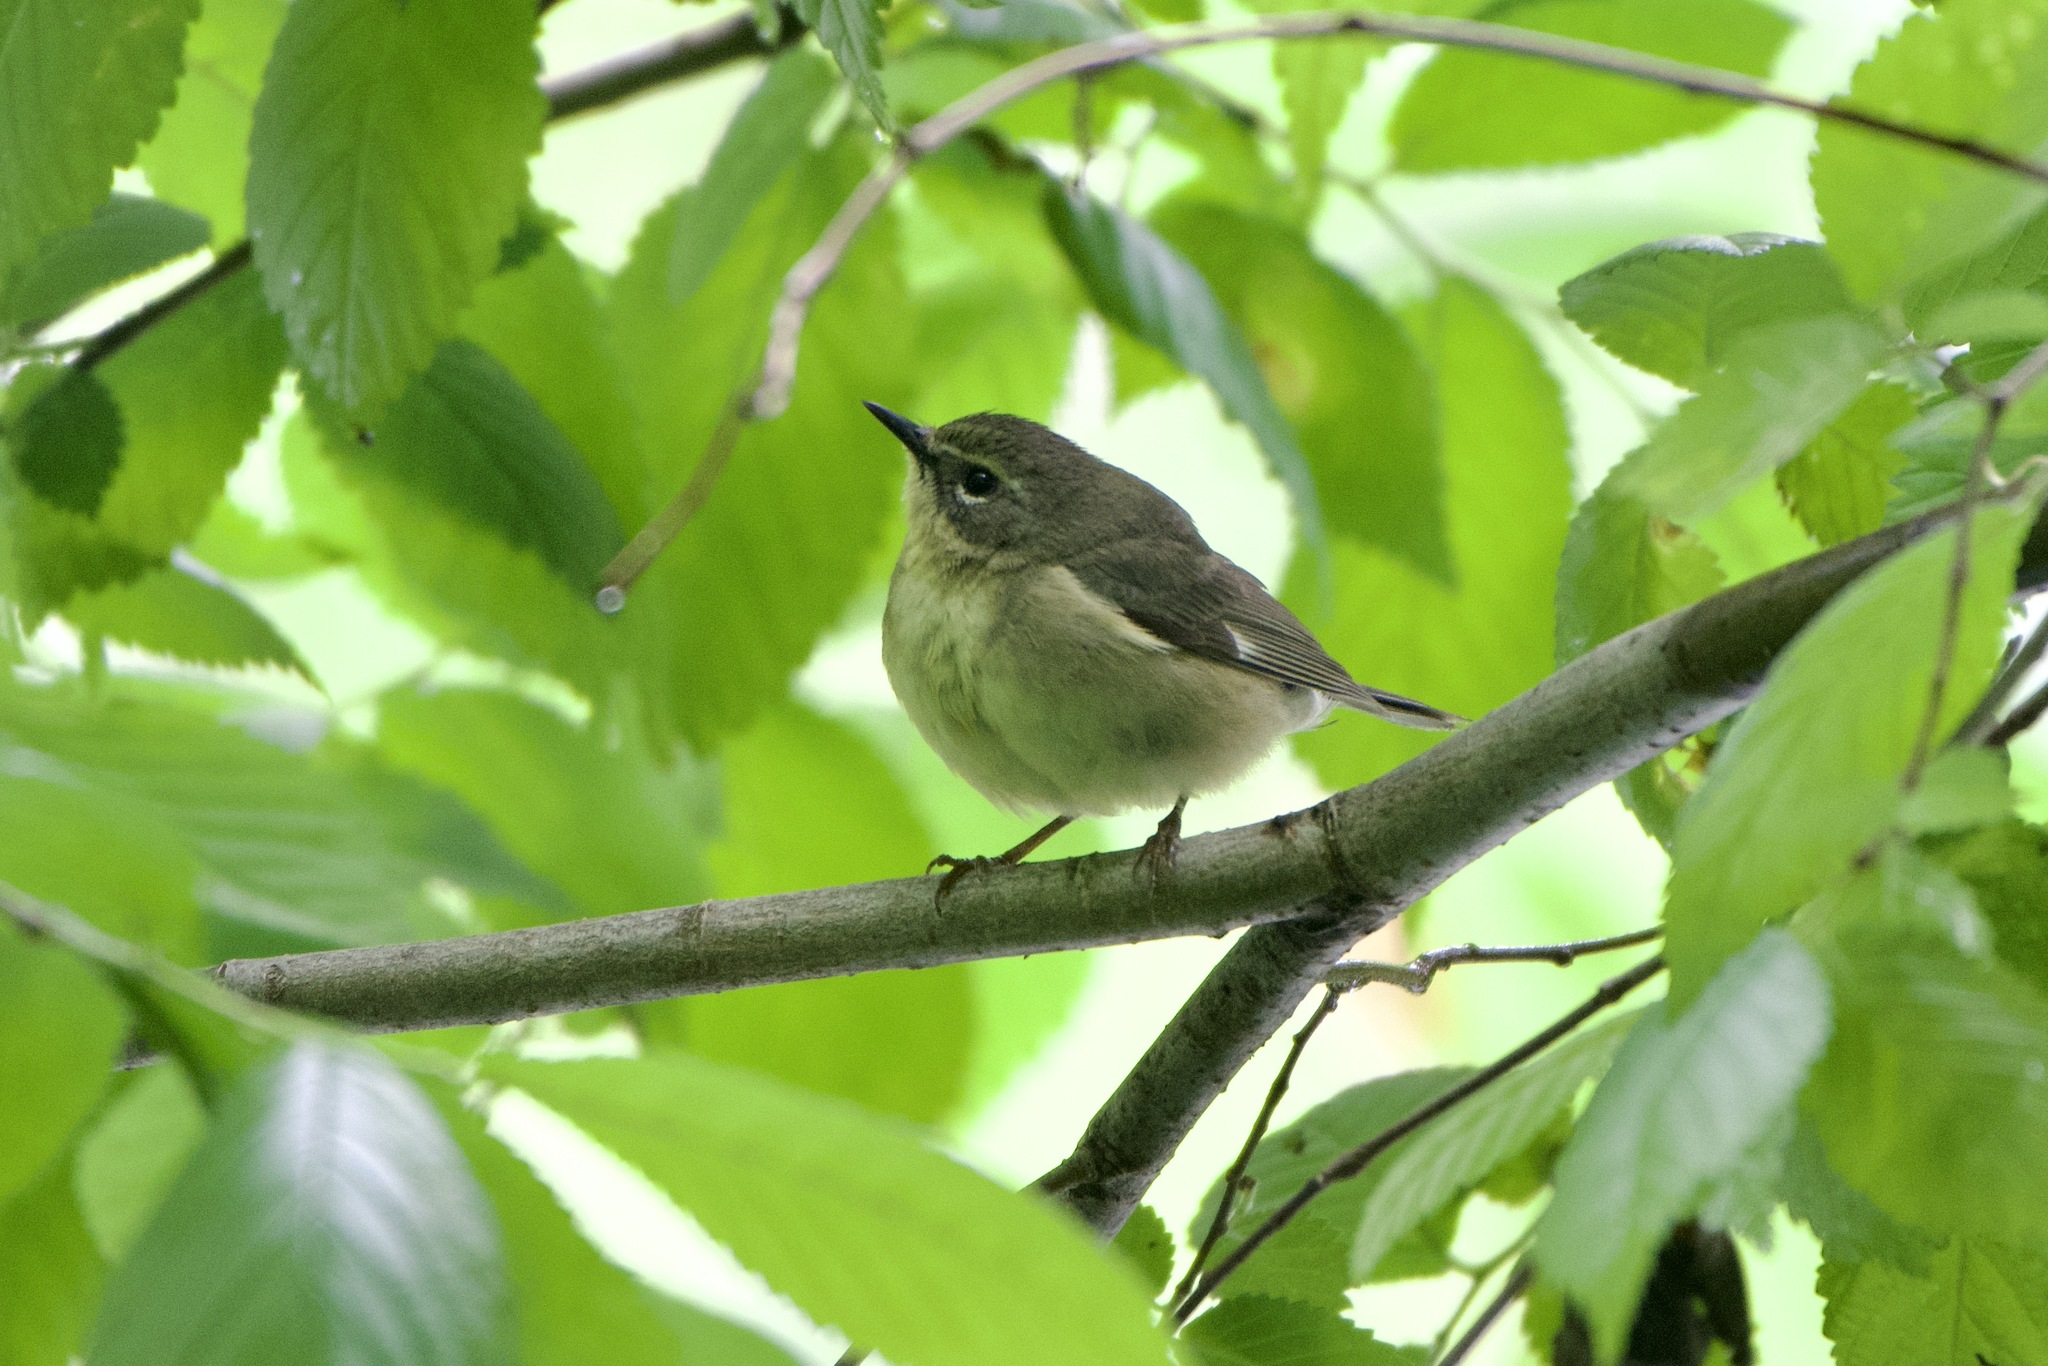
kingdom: Animalia
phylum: Chordata
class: Aves
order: Passeriformes
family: Parulidae
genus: Setophaga
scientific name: Setophaga caerulescens
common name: Black-throated blue warbler
